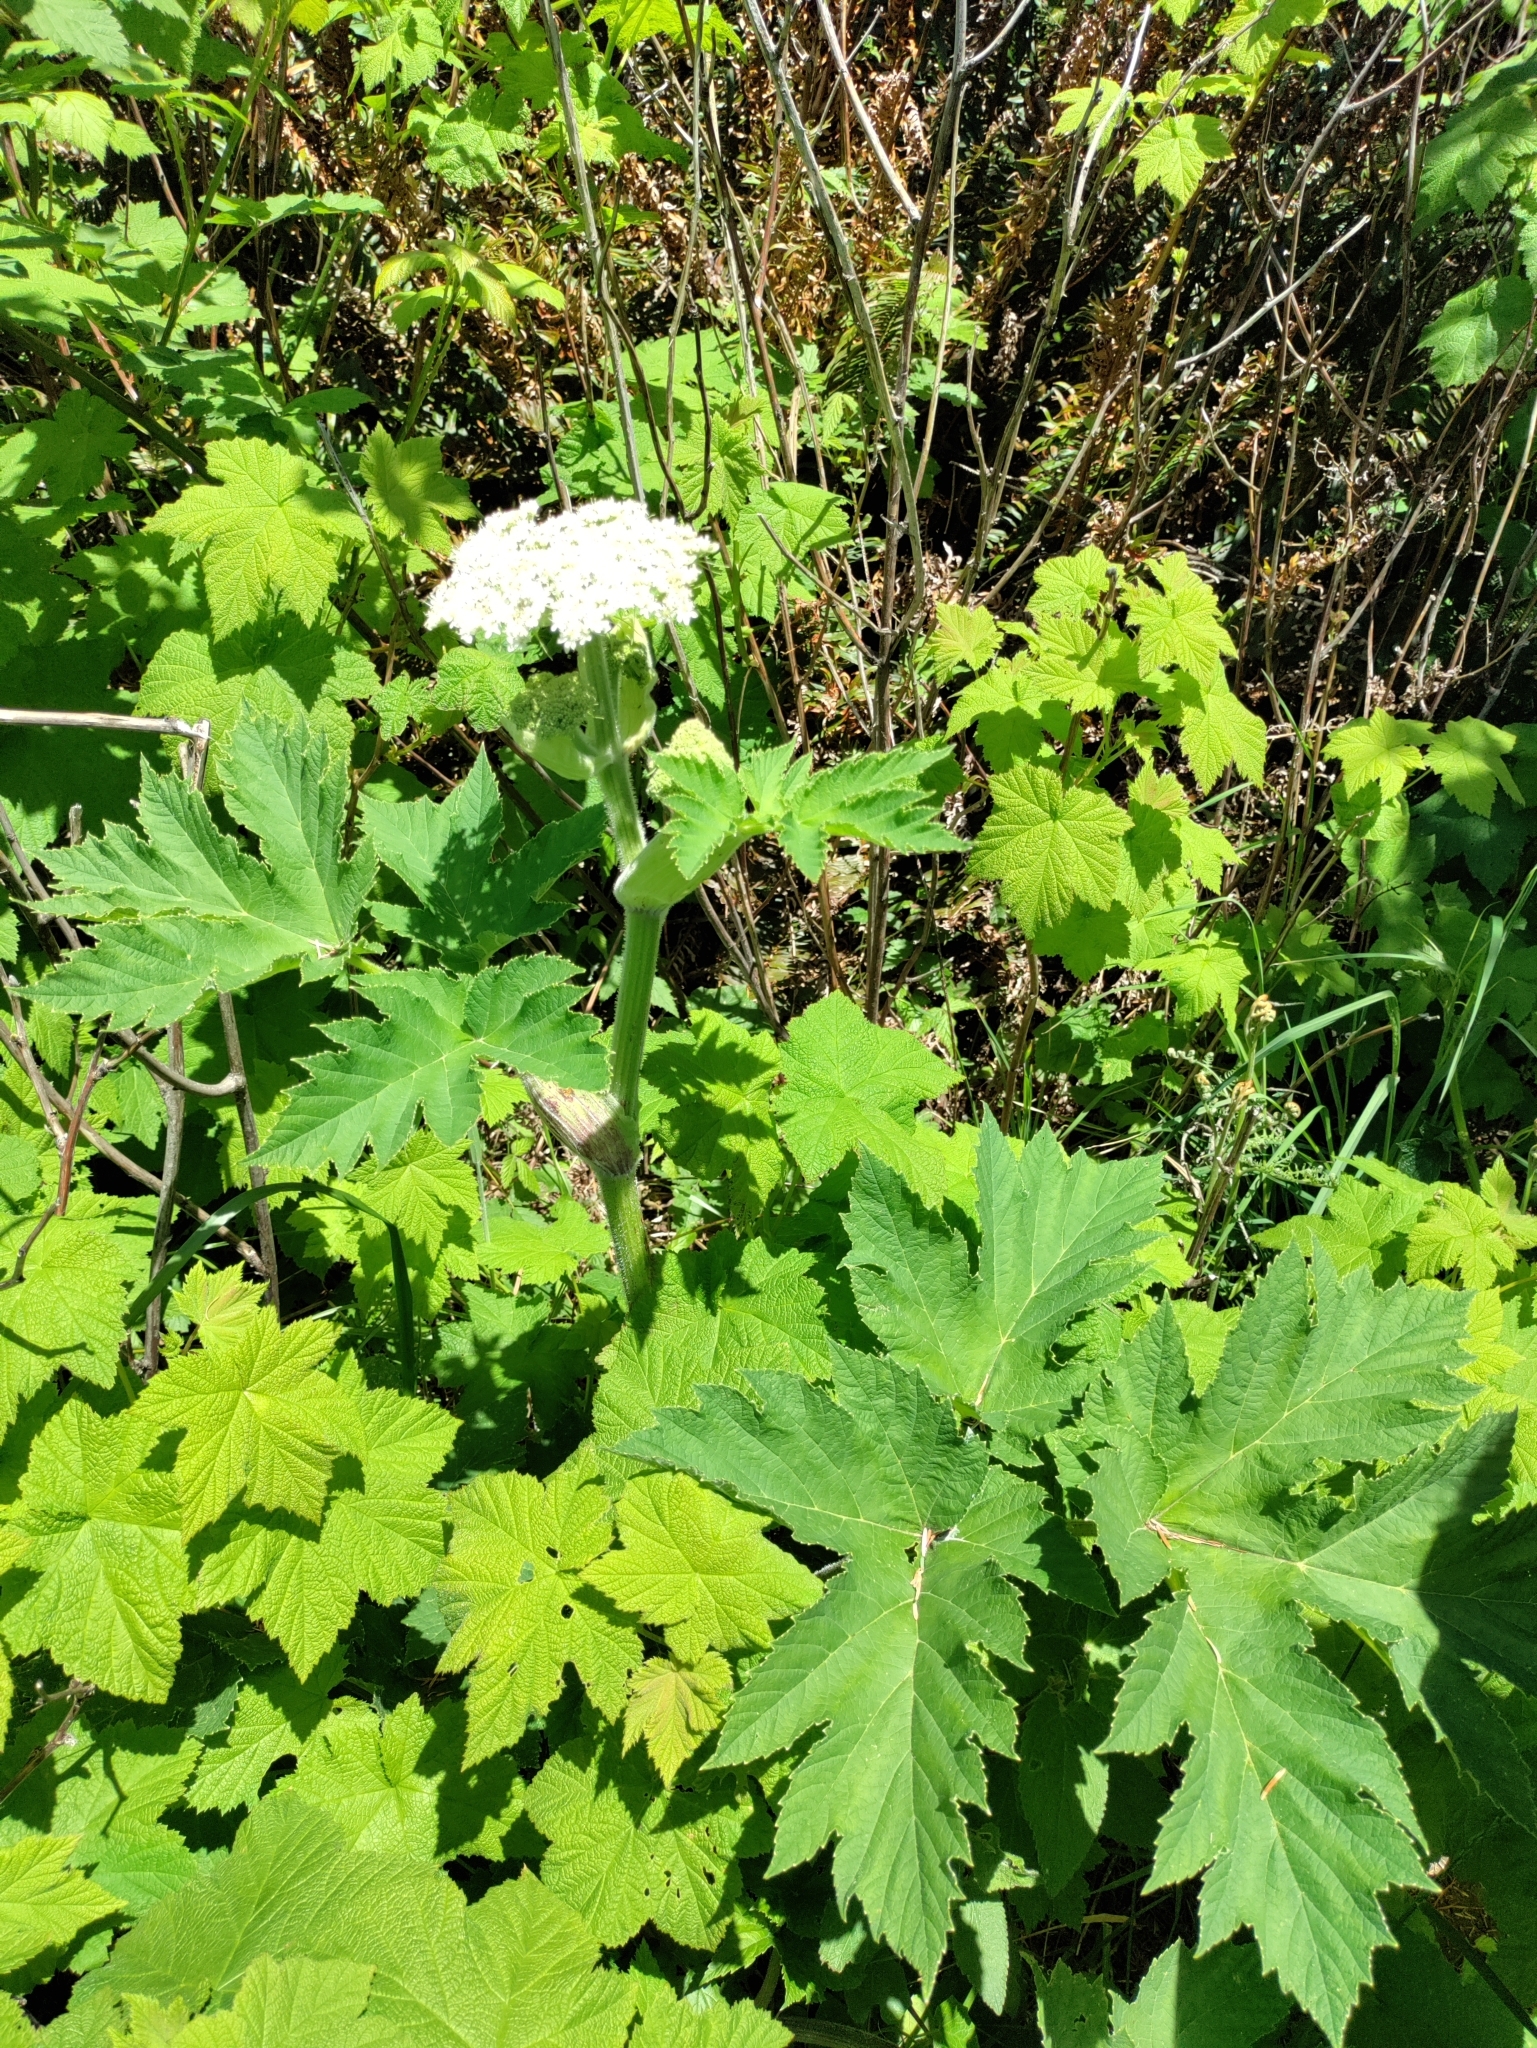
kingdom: Plantae
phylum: Tracheophyta
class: Magnoliopsida
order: Apiales
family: Apiaceae
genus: Heracleum
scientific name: Heracleum maximum
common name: American cow parsnip
